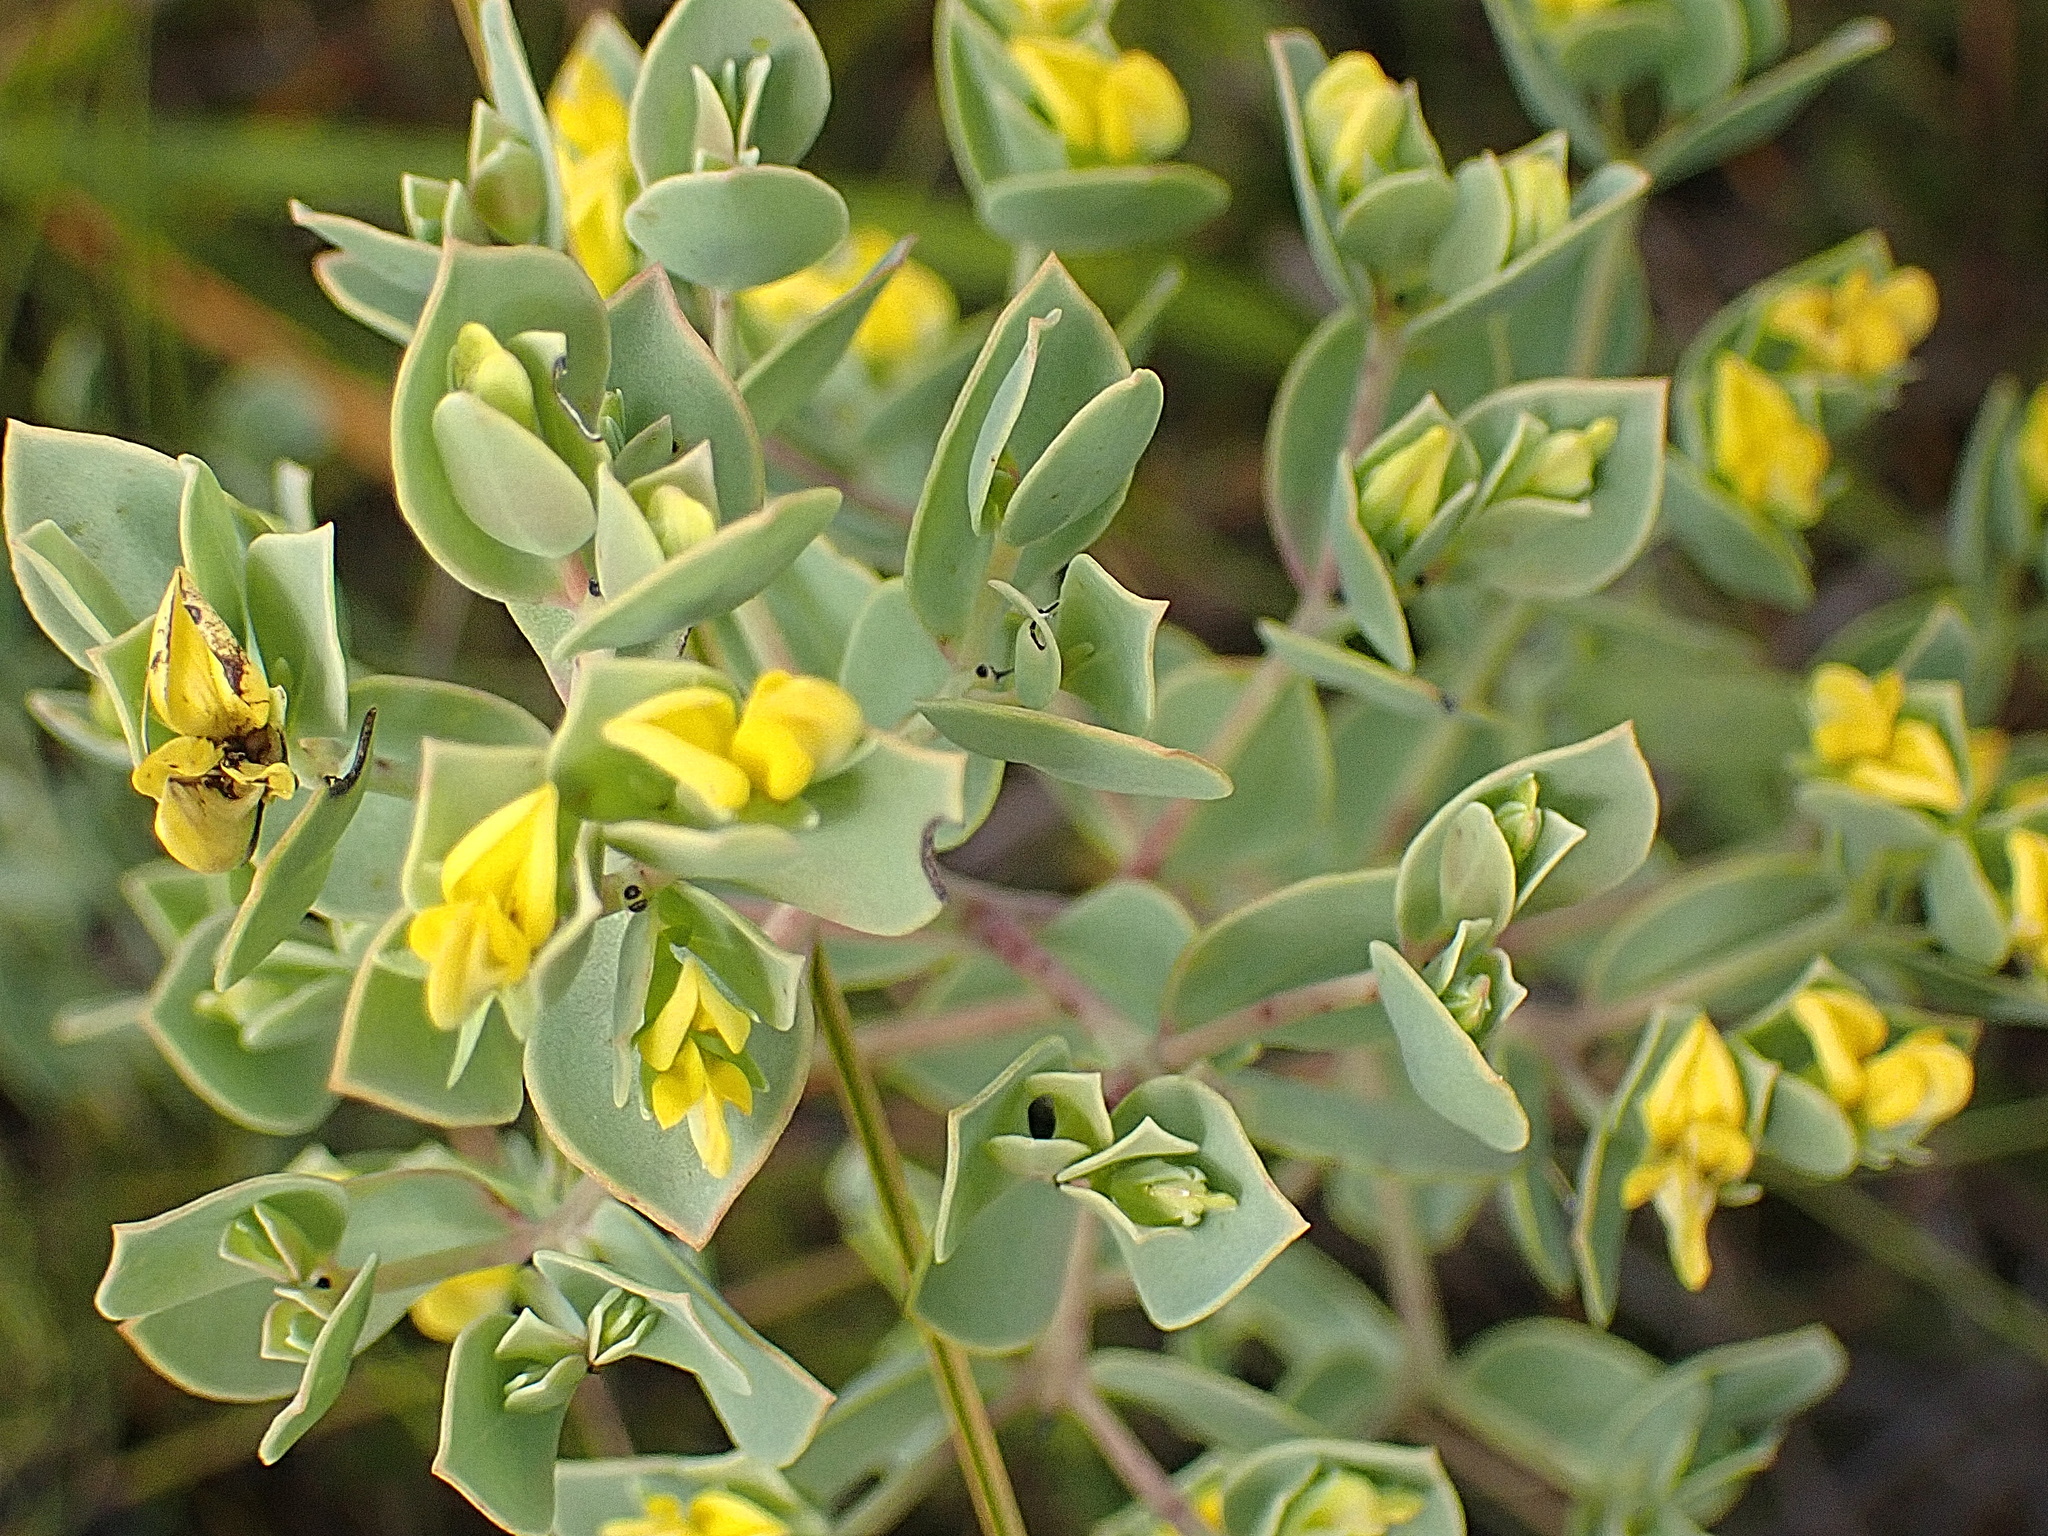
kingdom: Plantae
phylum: Tracheophyta
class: Magnoliopsida
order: Fabales
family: Fabaceae
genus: Rafnia
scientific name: Rafnia capensis
